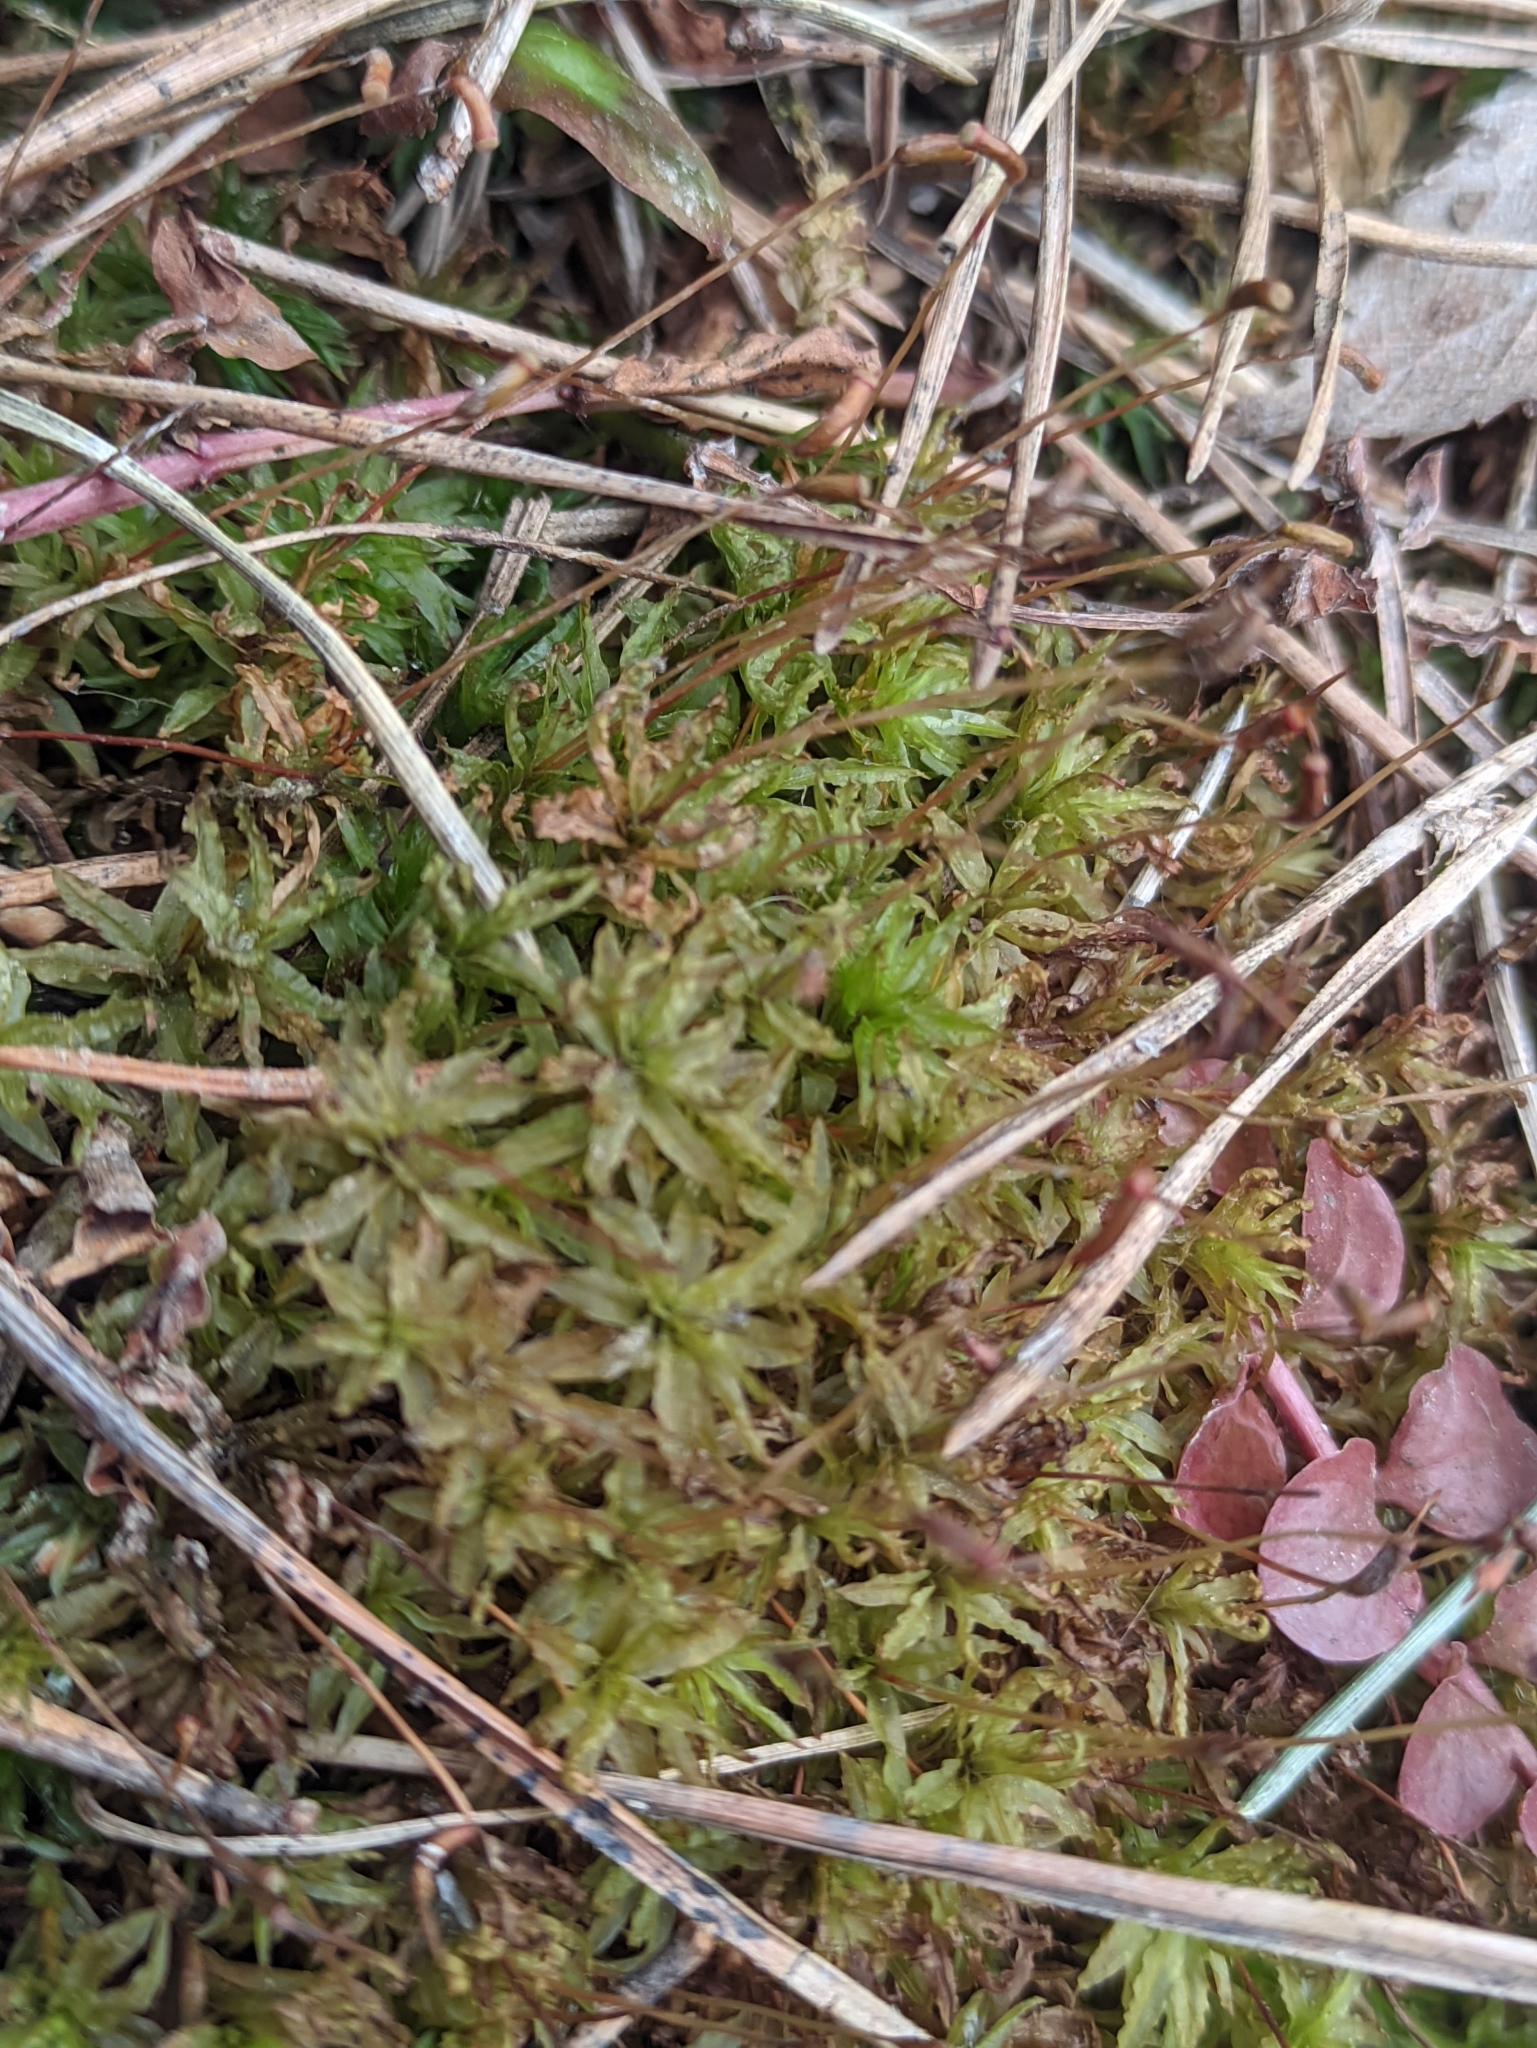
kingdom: Plantae
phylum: Bryophyta
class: Polytrichopsida
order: Polytrichales
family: Polytrichaceae
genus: Atrichum
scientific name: Atrichum undulatum
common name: Common smoothcap
